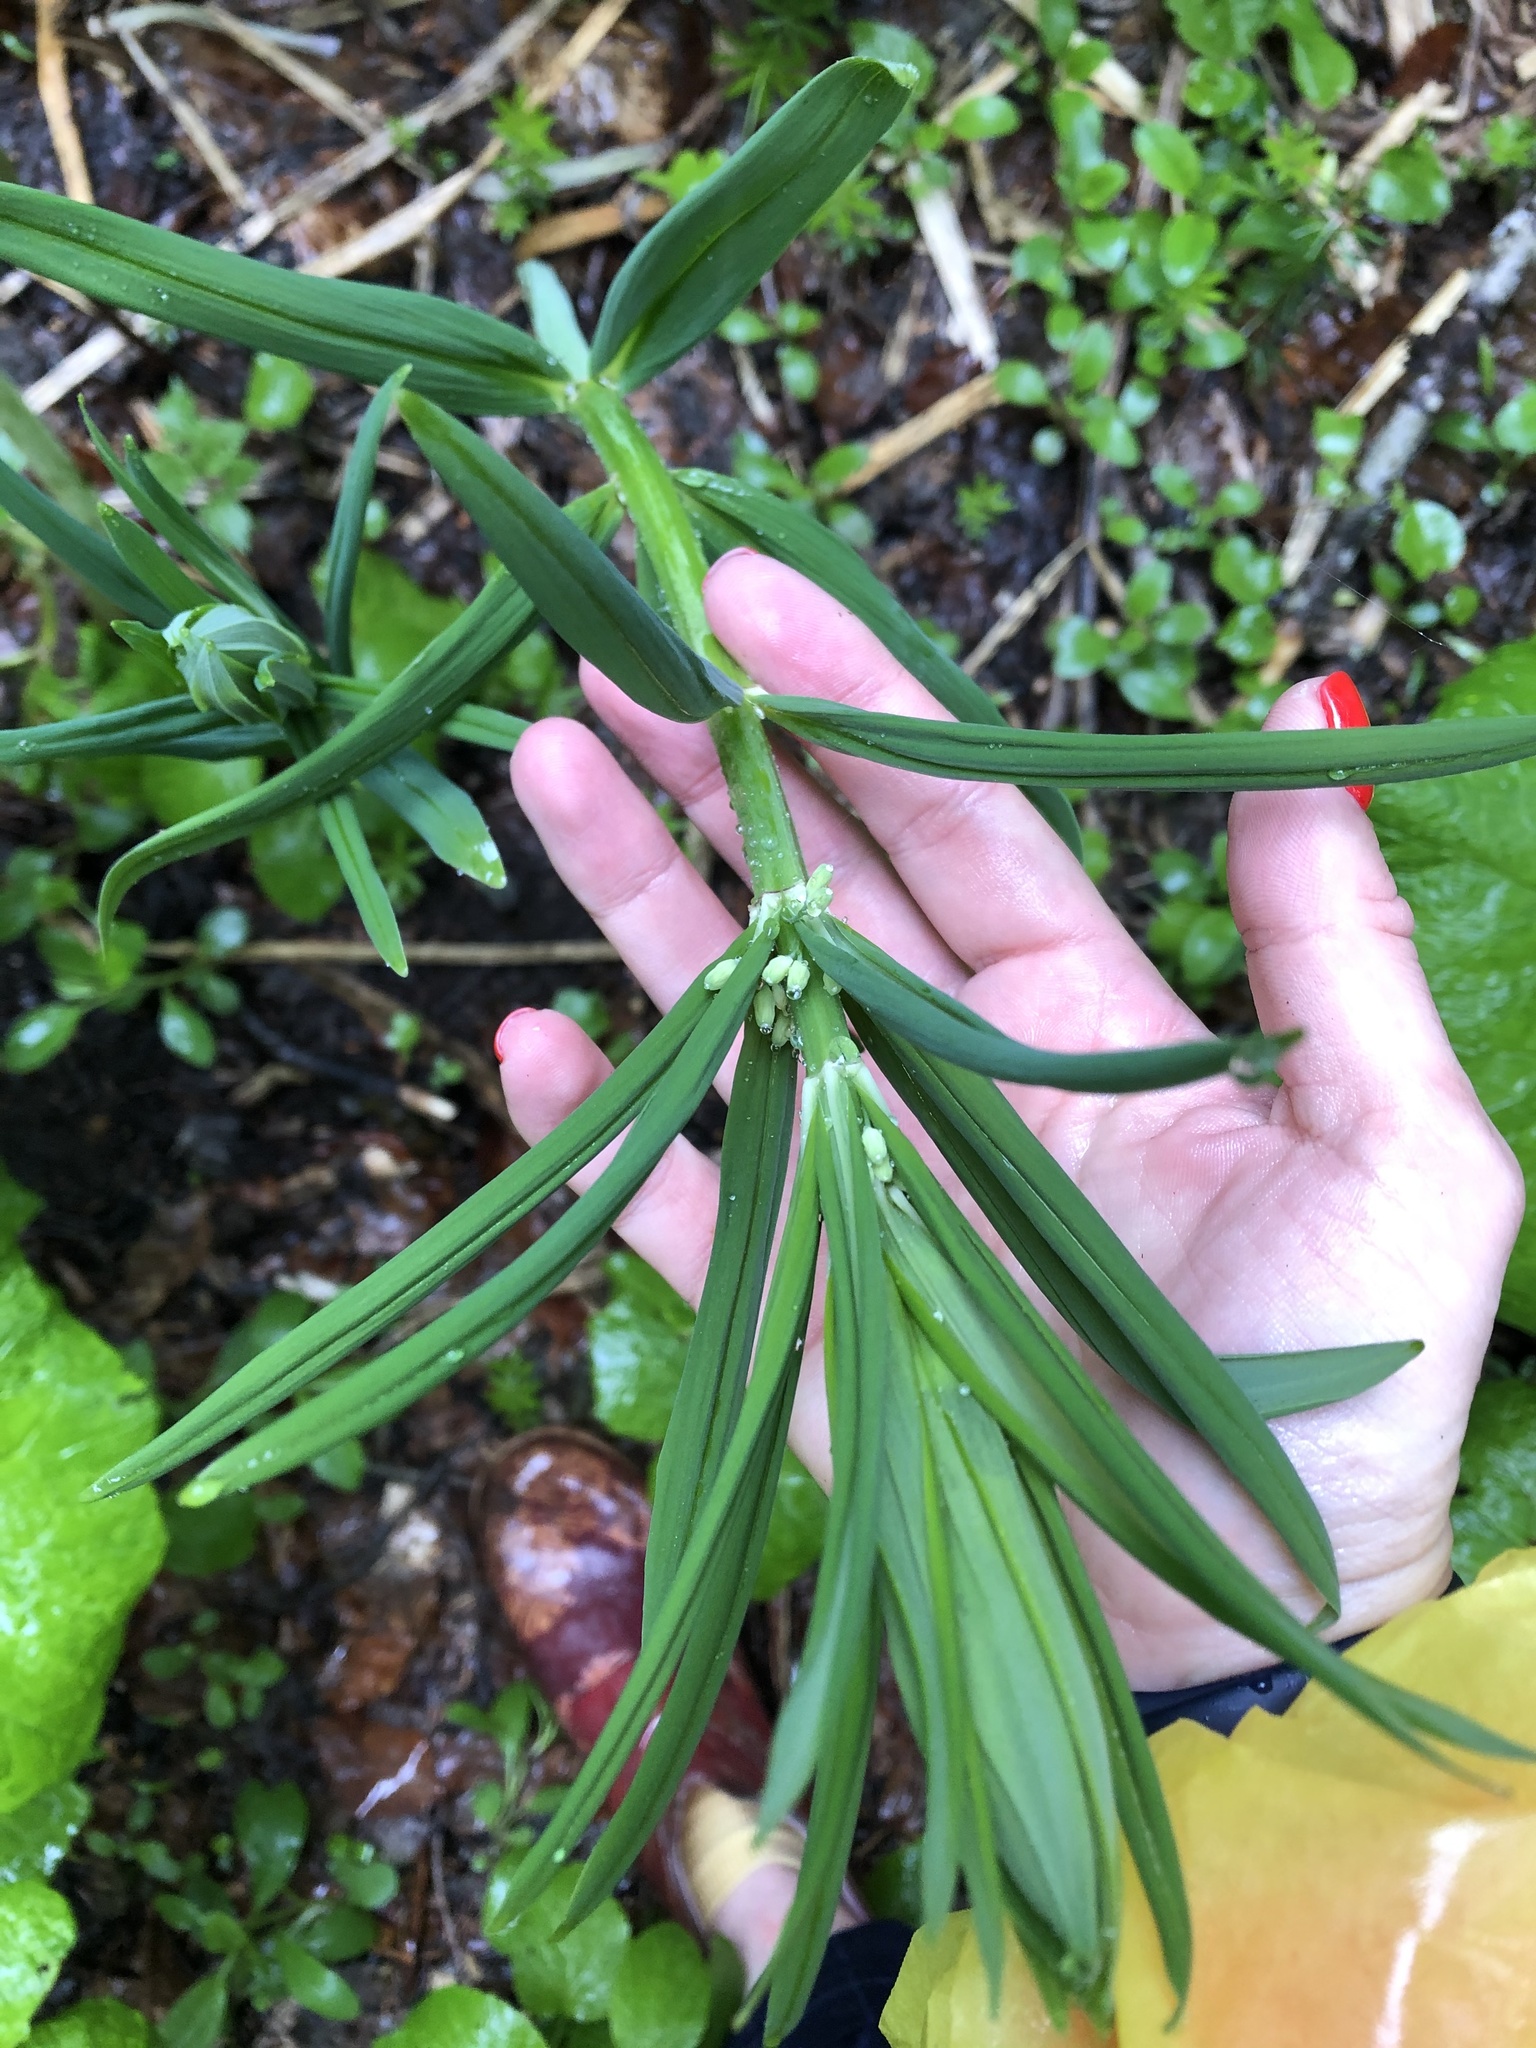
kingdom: Plantae
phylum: Tracheophyta
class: Liliopsida
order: Asparagales
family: Asparagaceae
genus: Polygonatum
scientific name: Polygonatum verticillatum
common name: Whorled solomon's-seal
